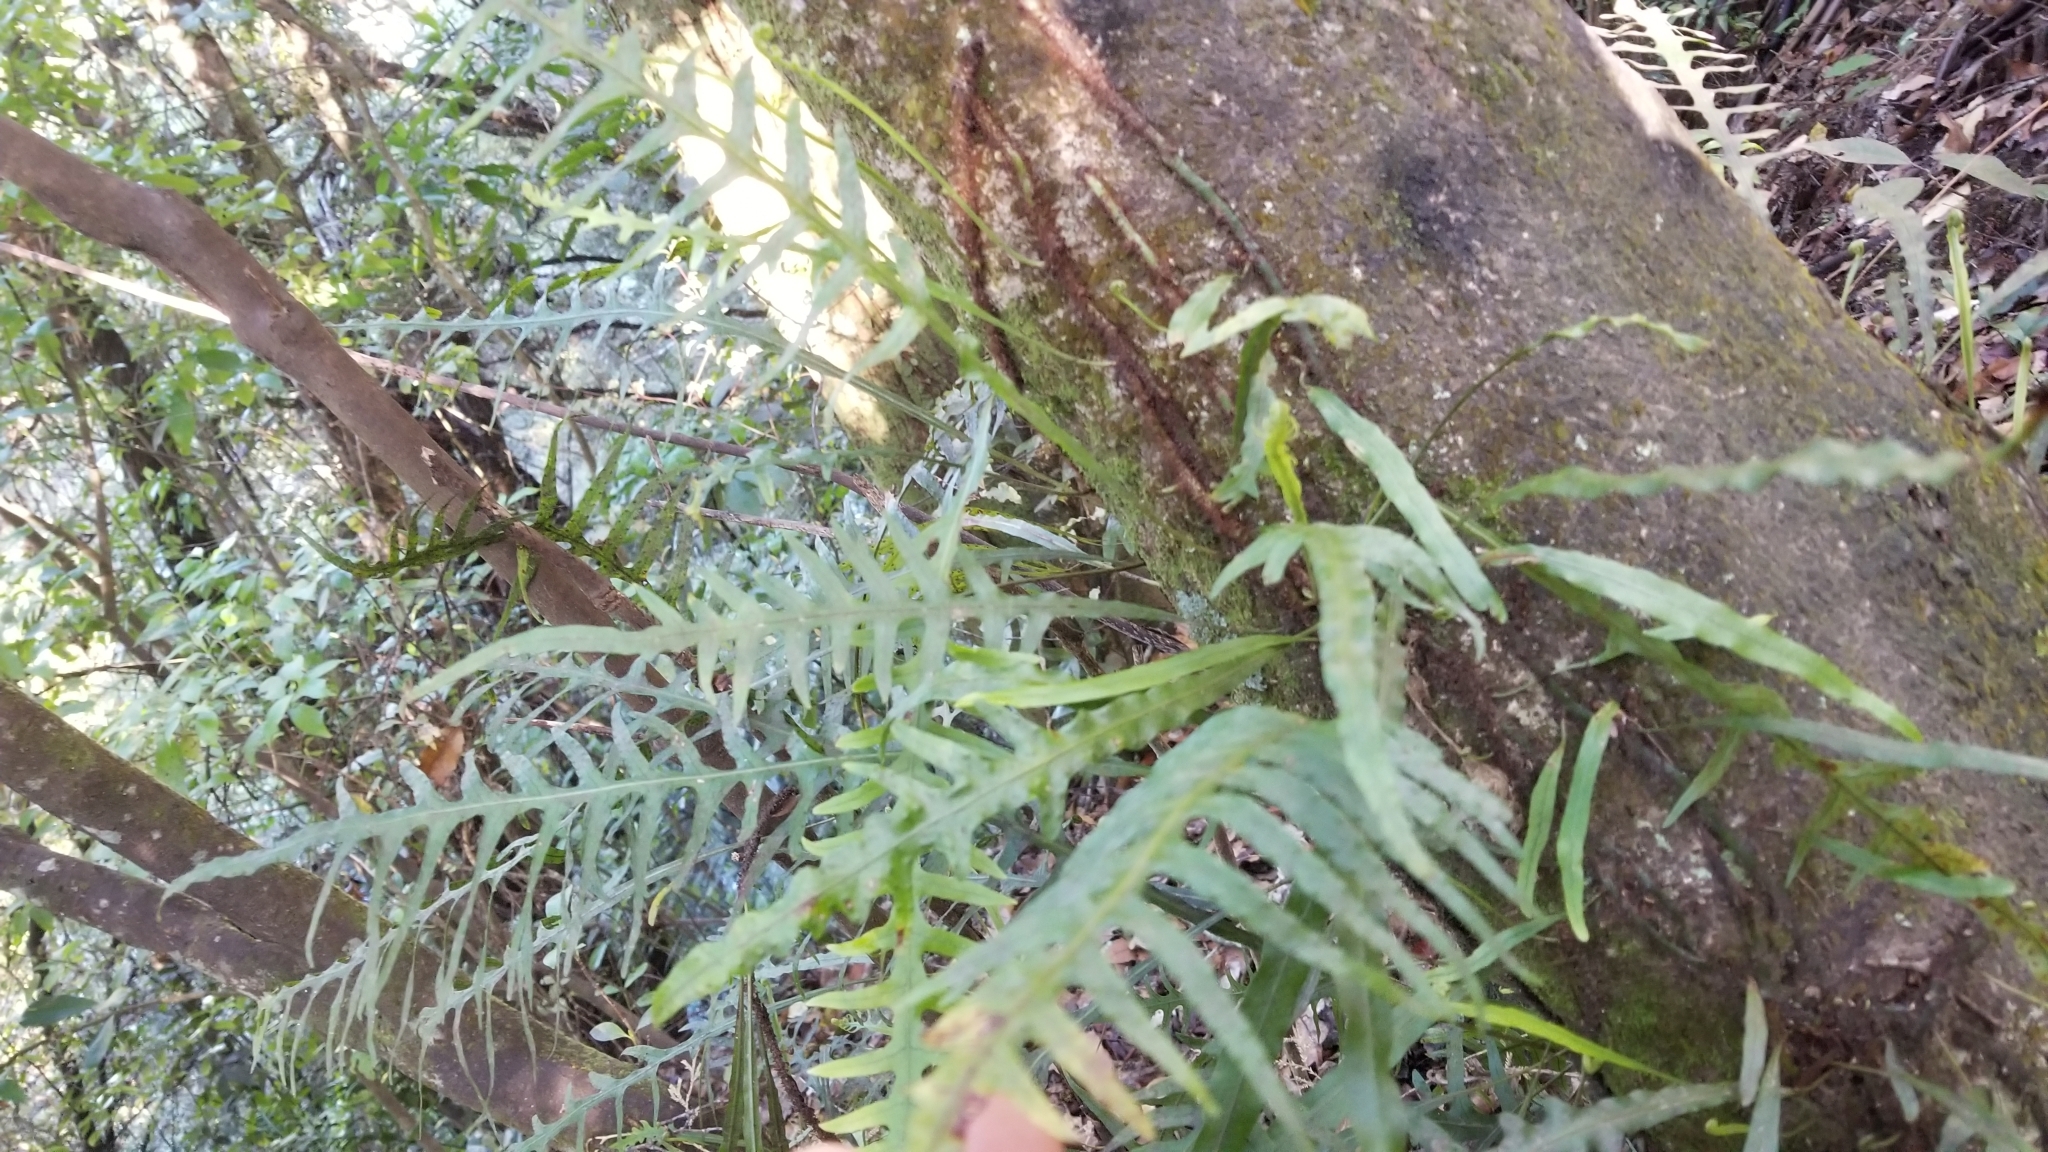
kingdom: Plantae
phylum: Tracheophyta
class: Polypodiopsida
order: Polypodiales
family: Polypodiaceae
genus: Lecanopteris
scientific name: Lecanopteris scandens
